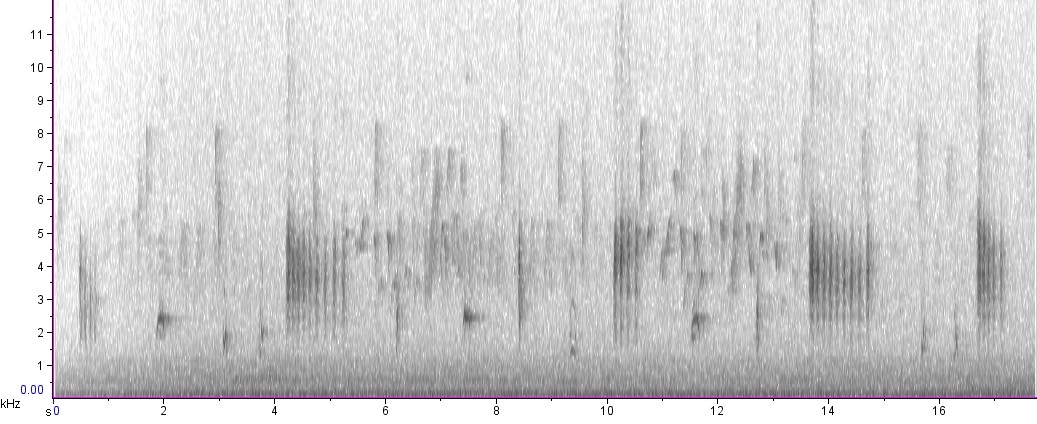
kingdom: Animalia
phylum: Chordata
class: Aves
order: Passeriformes
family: Parulidae
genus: Icteria
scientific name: Icteria virens
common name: Yellow-breasted chat
